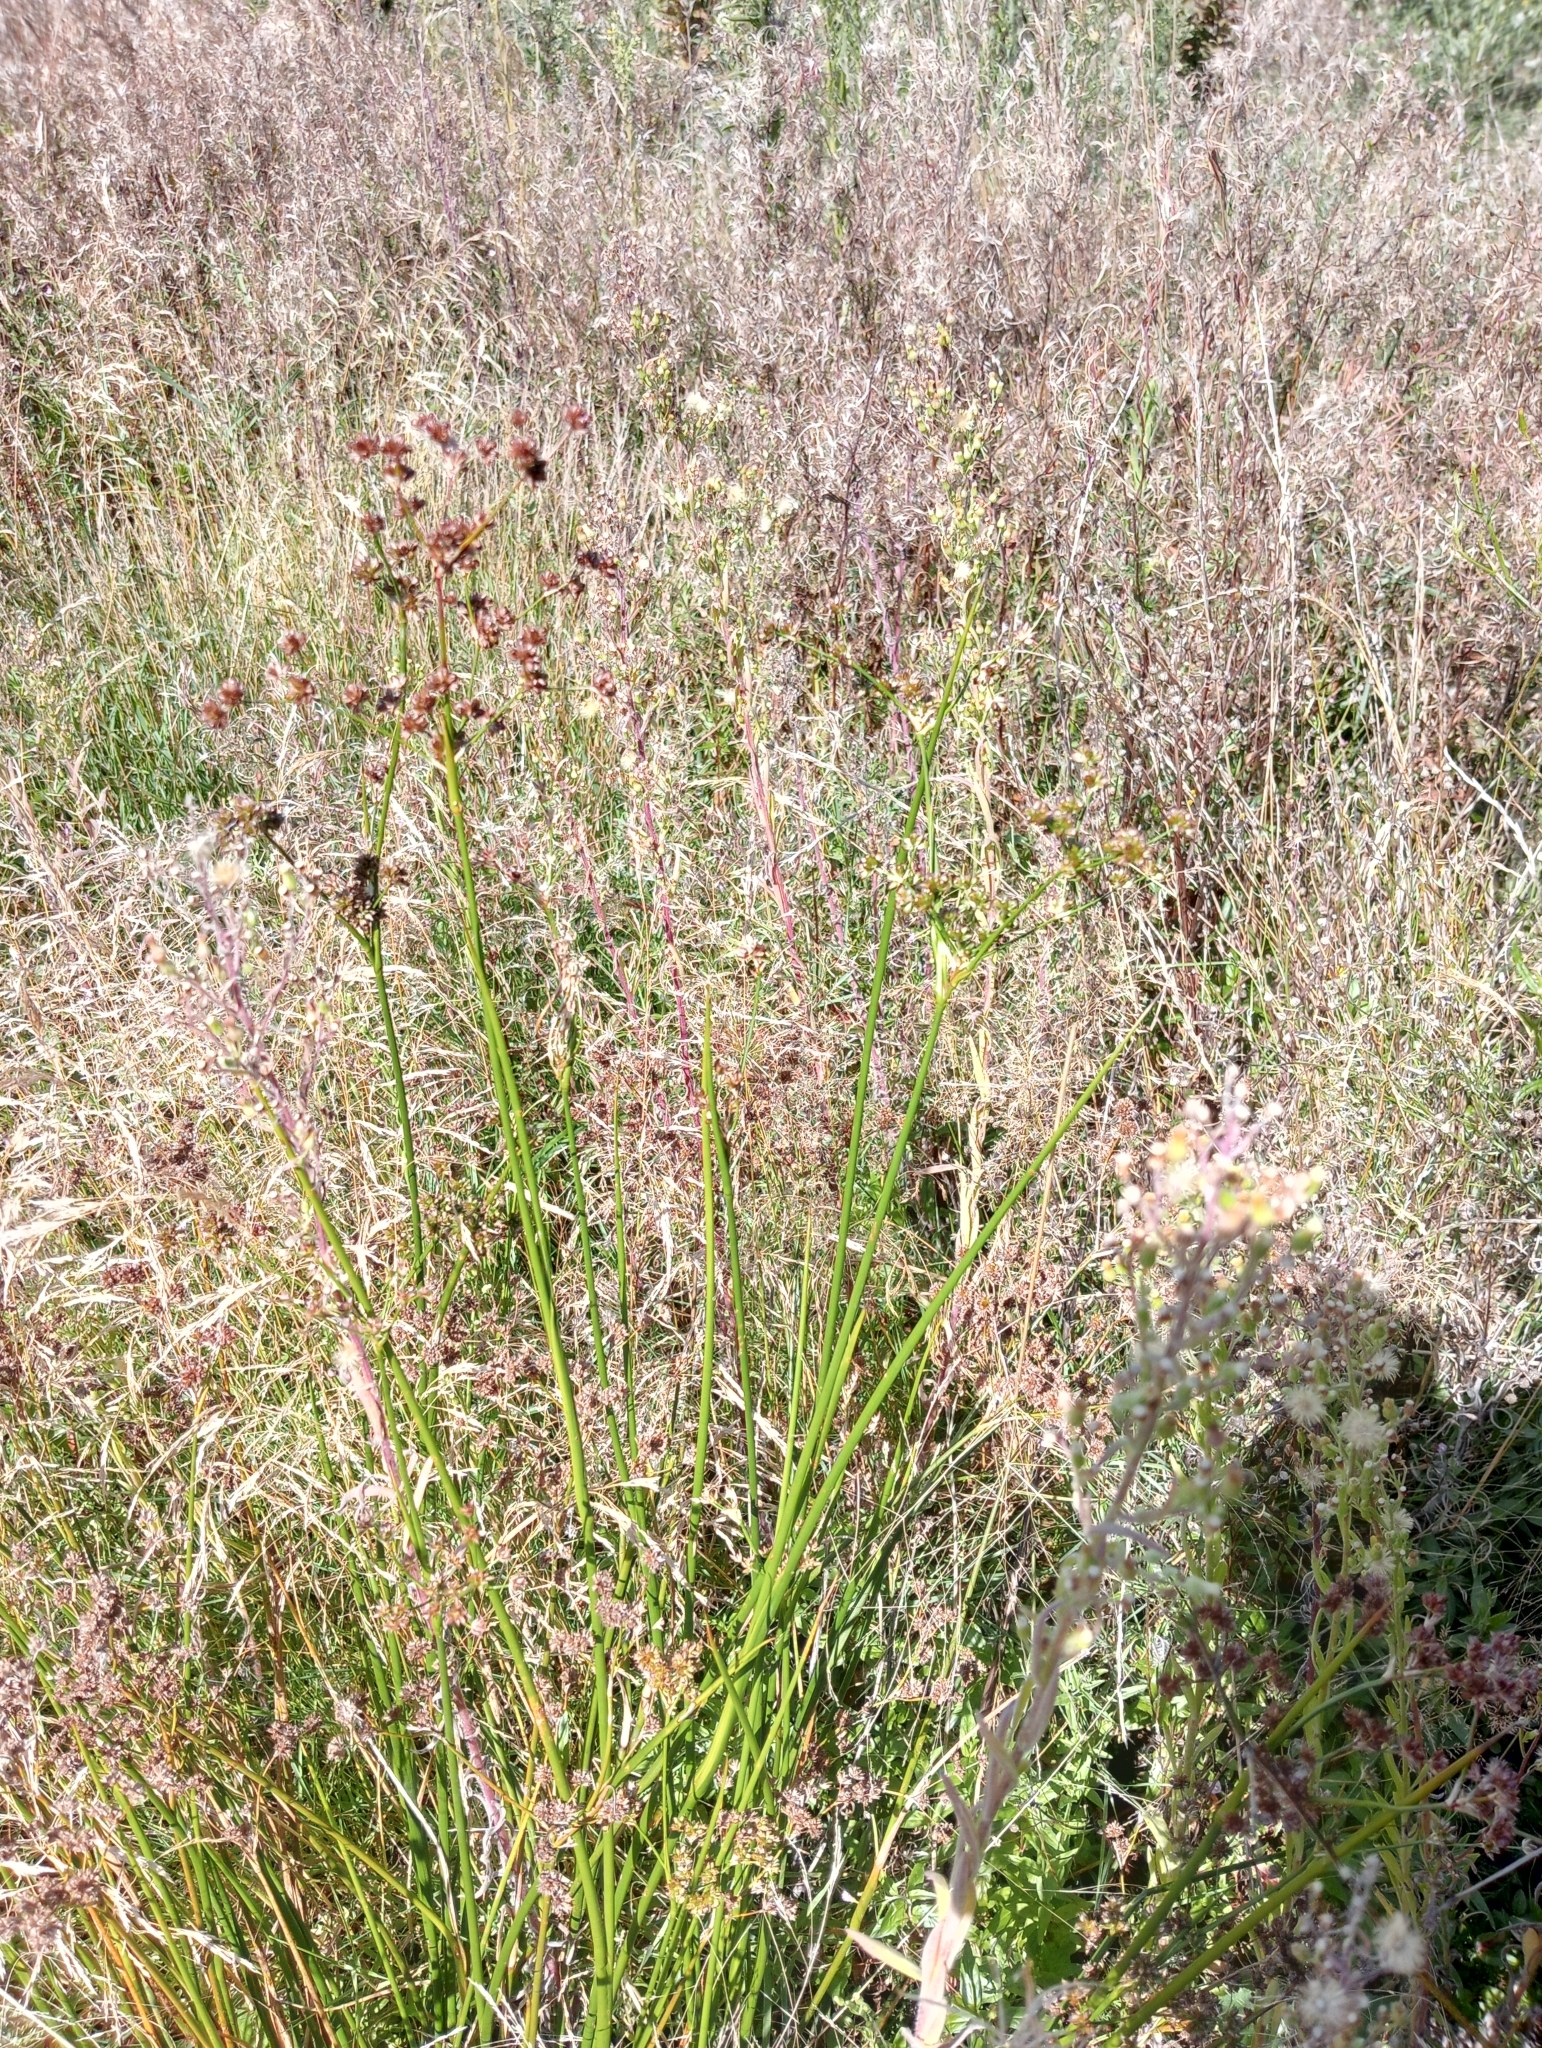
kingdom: Plantae
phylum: Tracheophyta
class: Liliopsida
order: Poales
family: Juncaceae
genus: Juncus
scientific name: Juncus microcephalus
